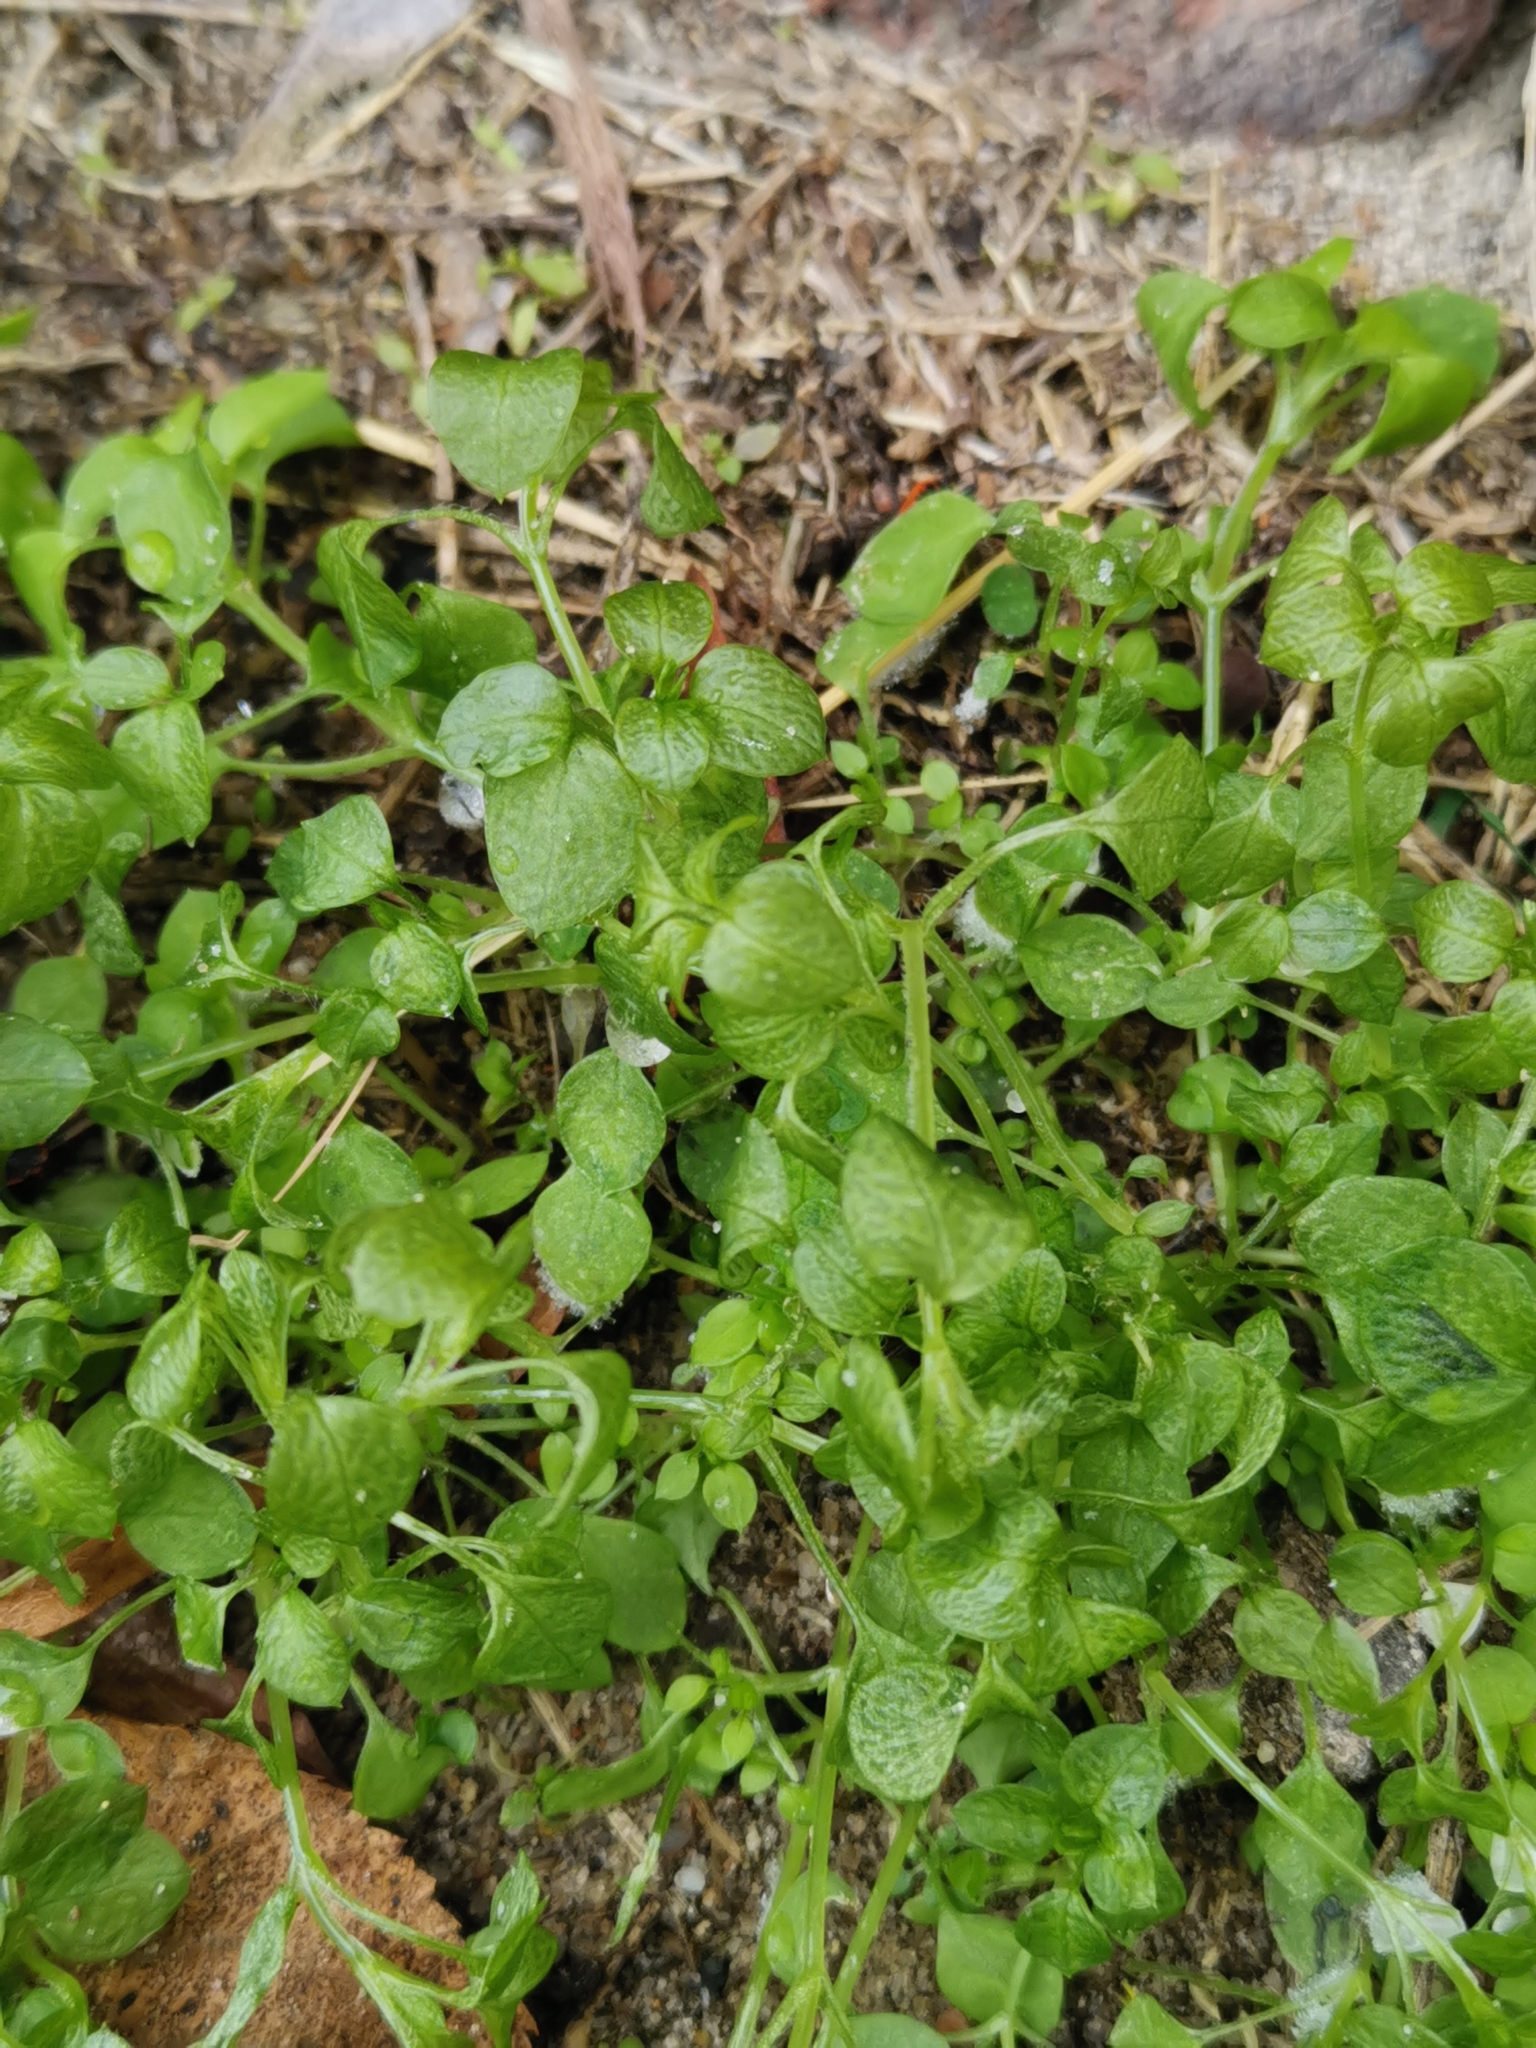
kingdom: Plantae
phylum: Tracheophyta
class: Magnoliopsida
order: Caryophyllales
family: Caryophyllaceae
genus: Stellaria
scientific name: Stellaria media
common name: Common chickweed
